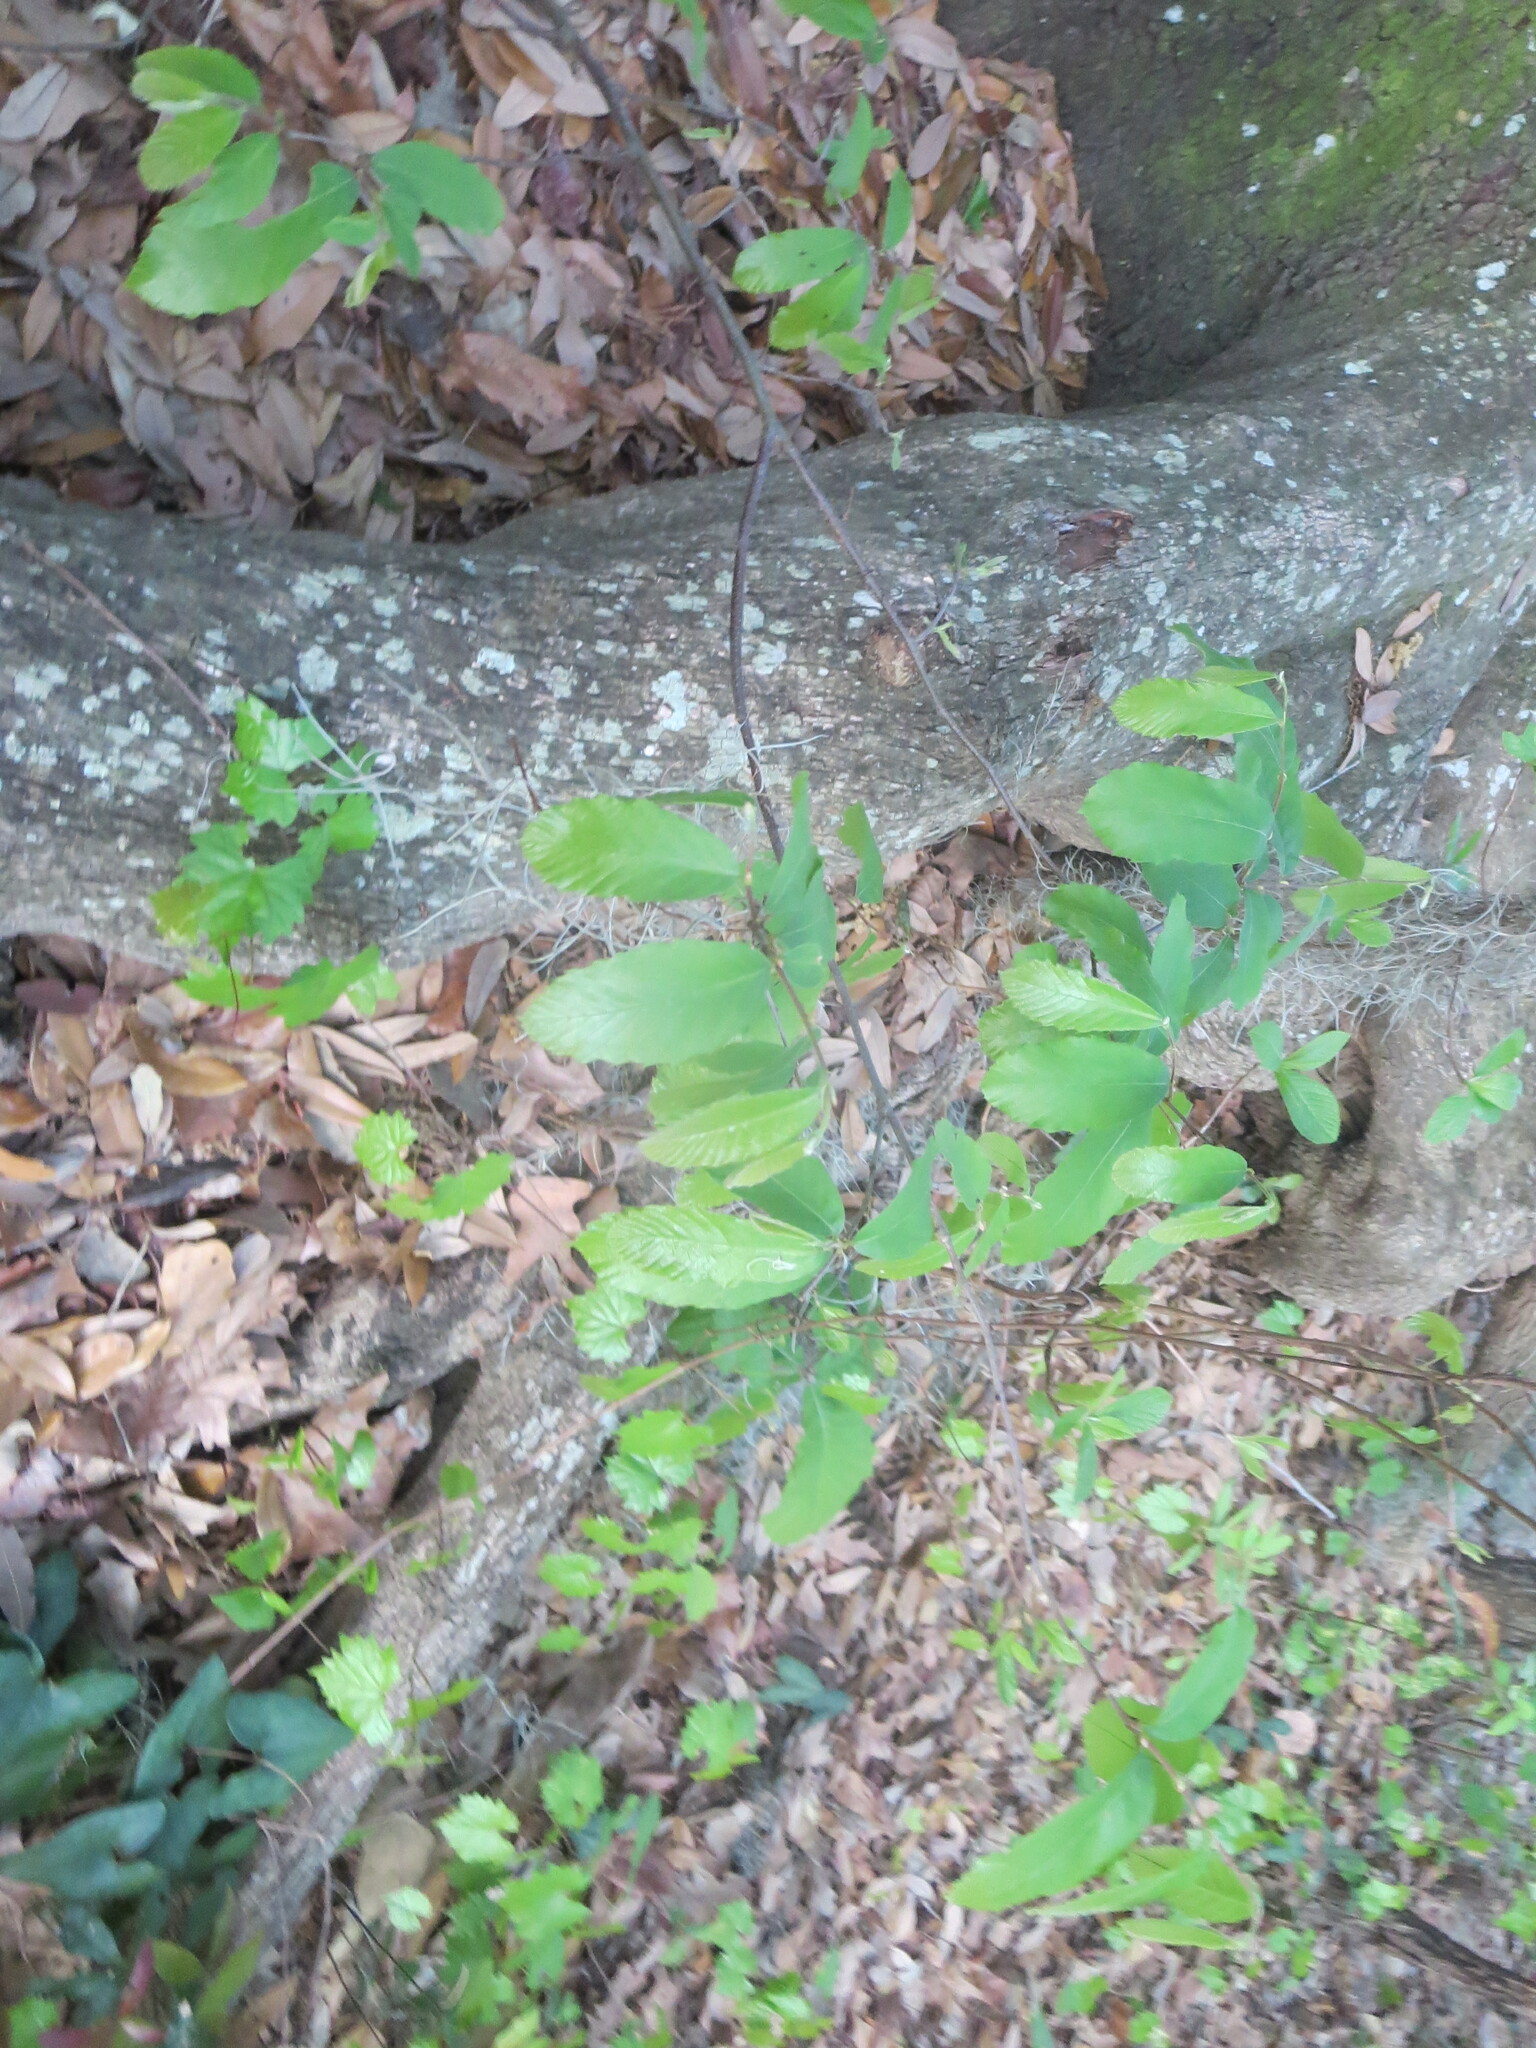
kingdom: Plantae
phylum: Tracheophyta
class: Magnoliopsida
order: Fagales
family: Fagaceae
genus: Castanea
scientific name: Castanea pumila
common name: Chinkapin
